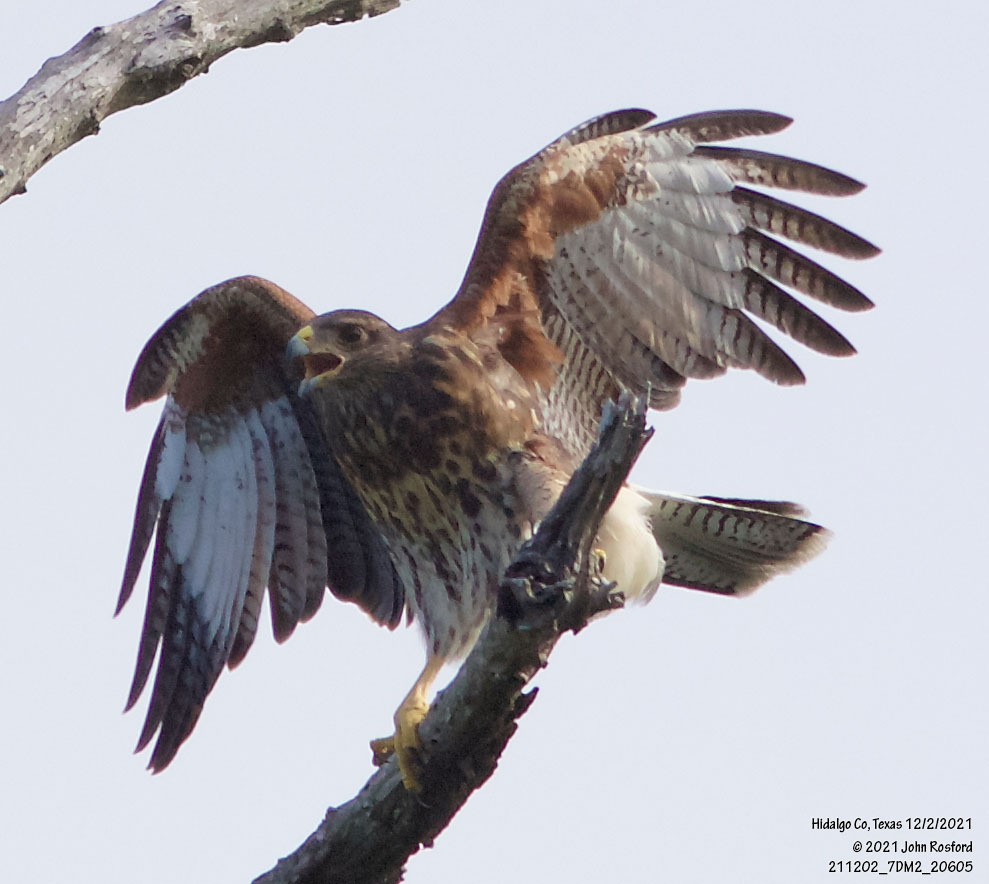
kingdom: Animalia
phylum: Chordata
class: Aves
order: Accipitriformes
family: Accipitridae
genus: Parabuteo
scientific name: Parabuteo unicinctus
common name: Harris's hawk
